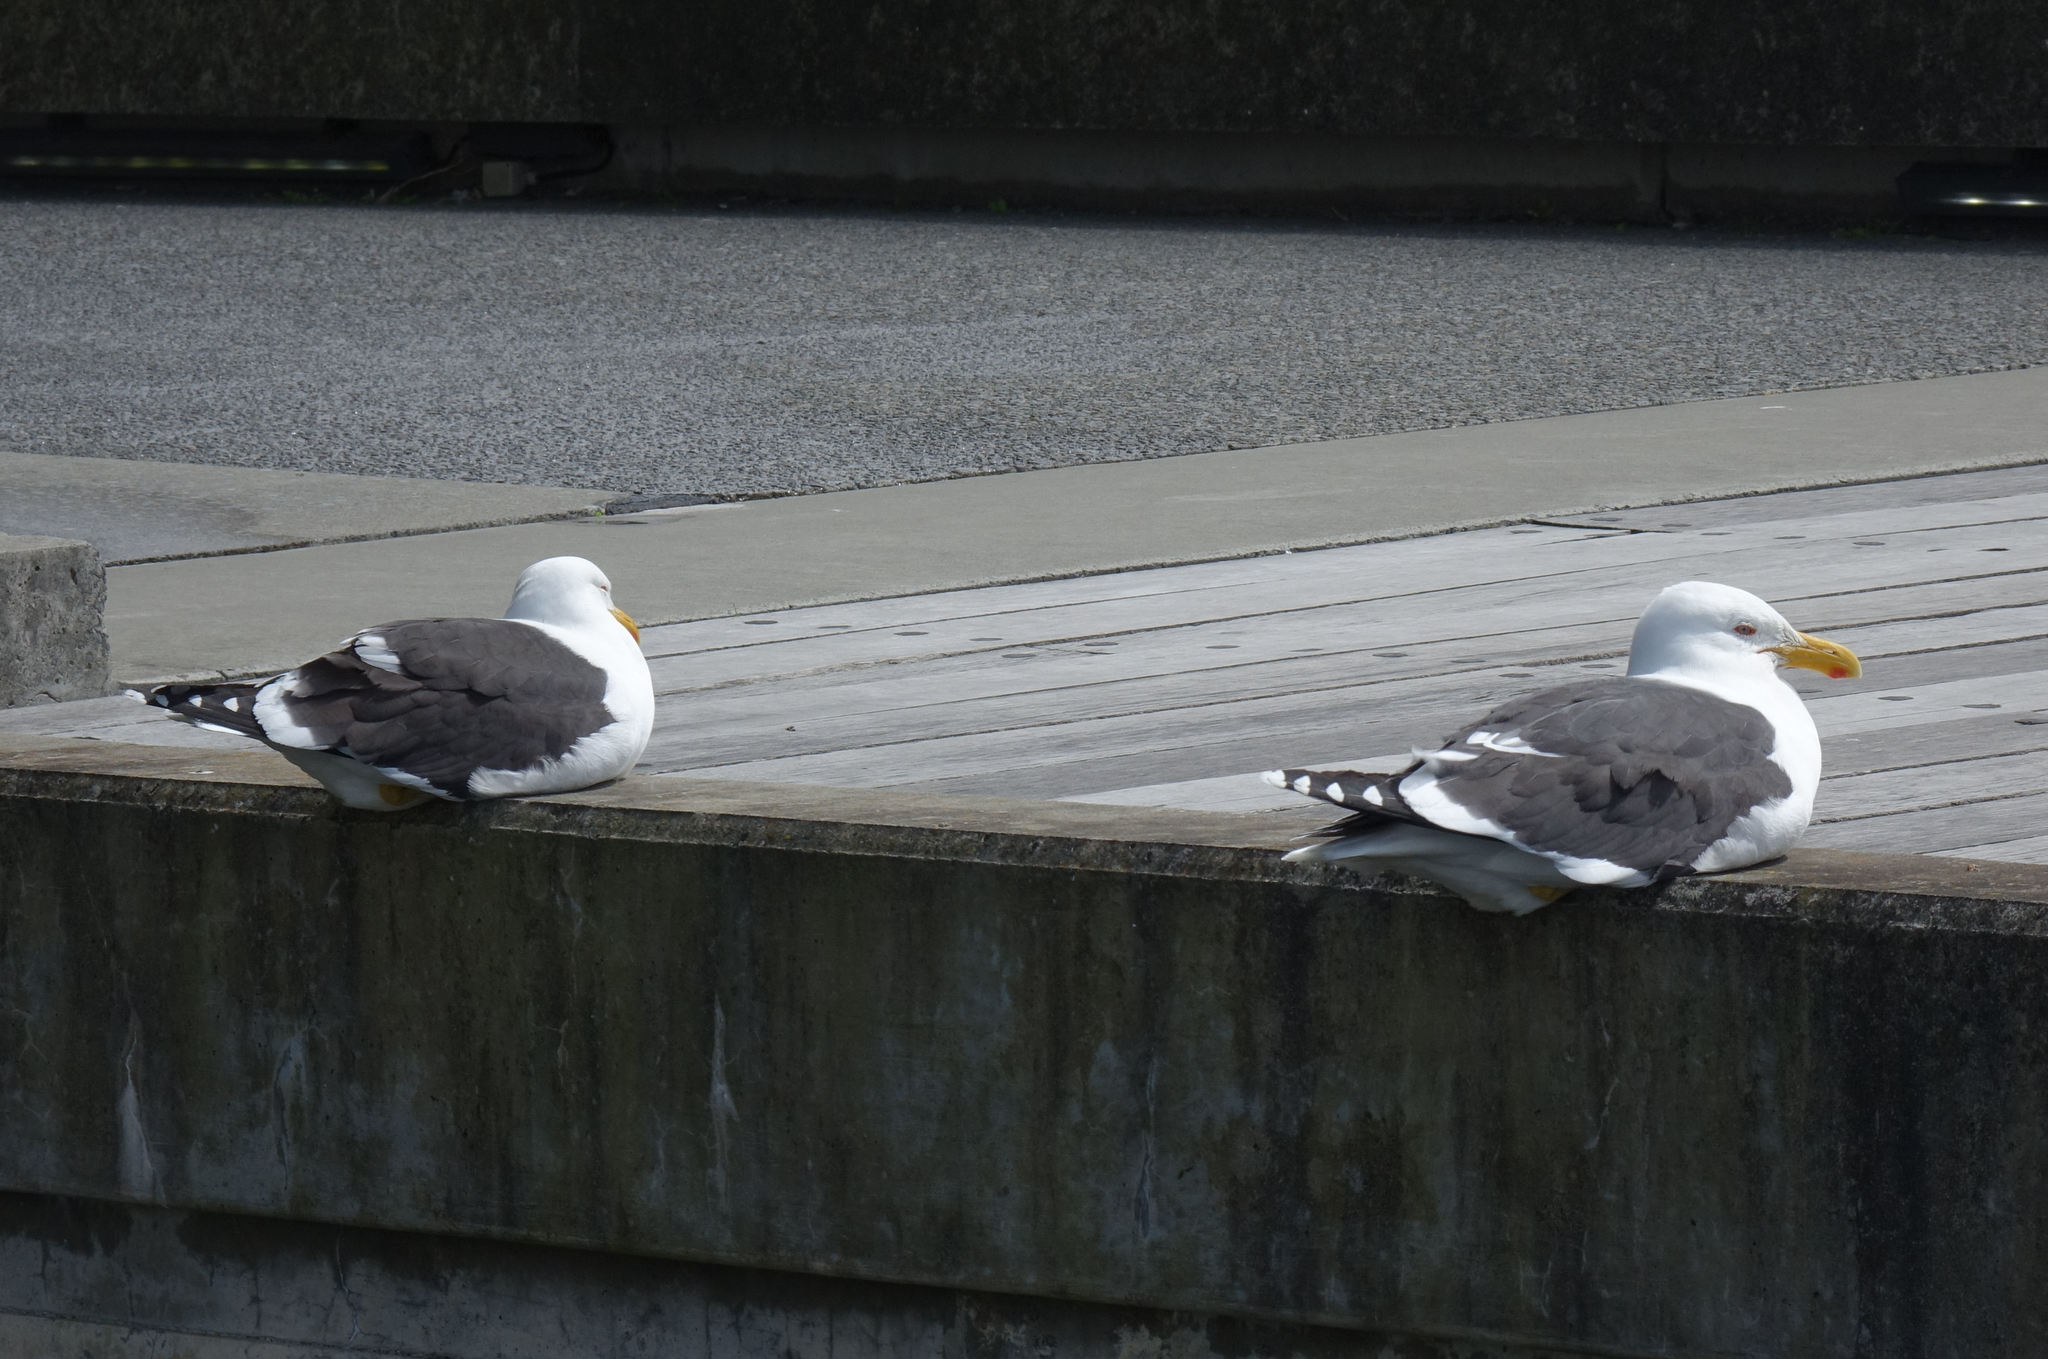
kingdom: Animalia
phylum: Chordata
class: Aves
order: Charadriiformes
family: Laridae
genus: Larus
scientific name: Larus dominicanus
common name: Kelp gull
